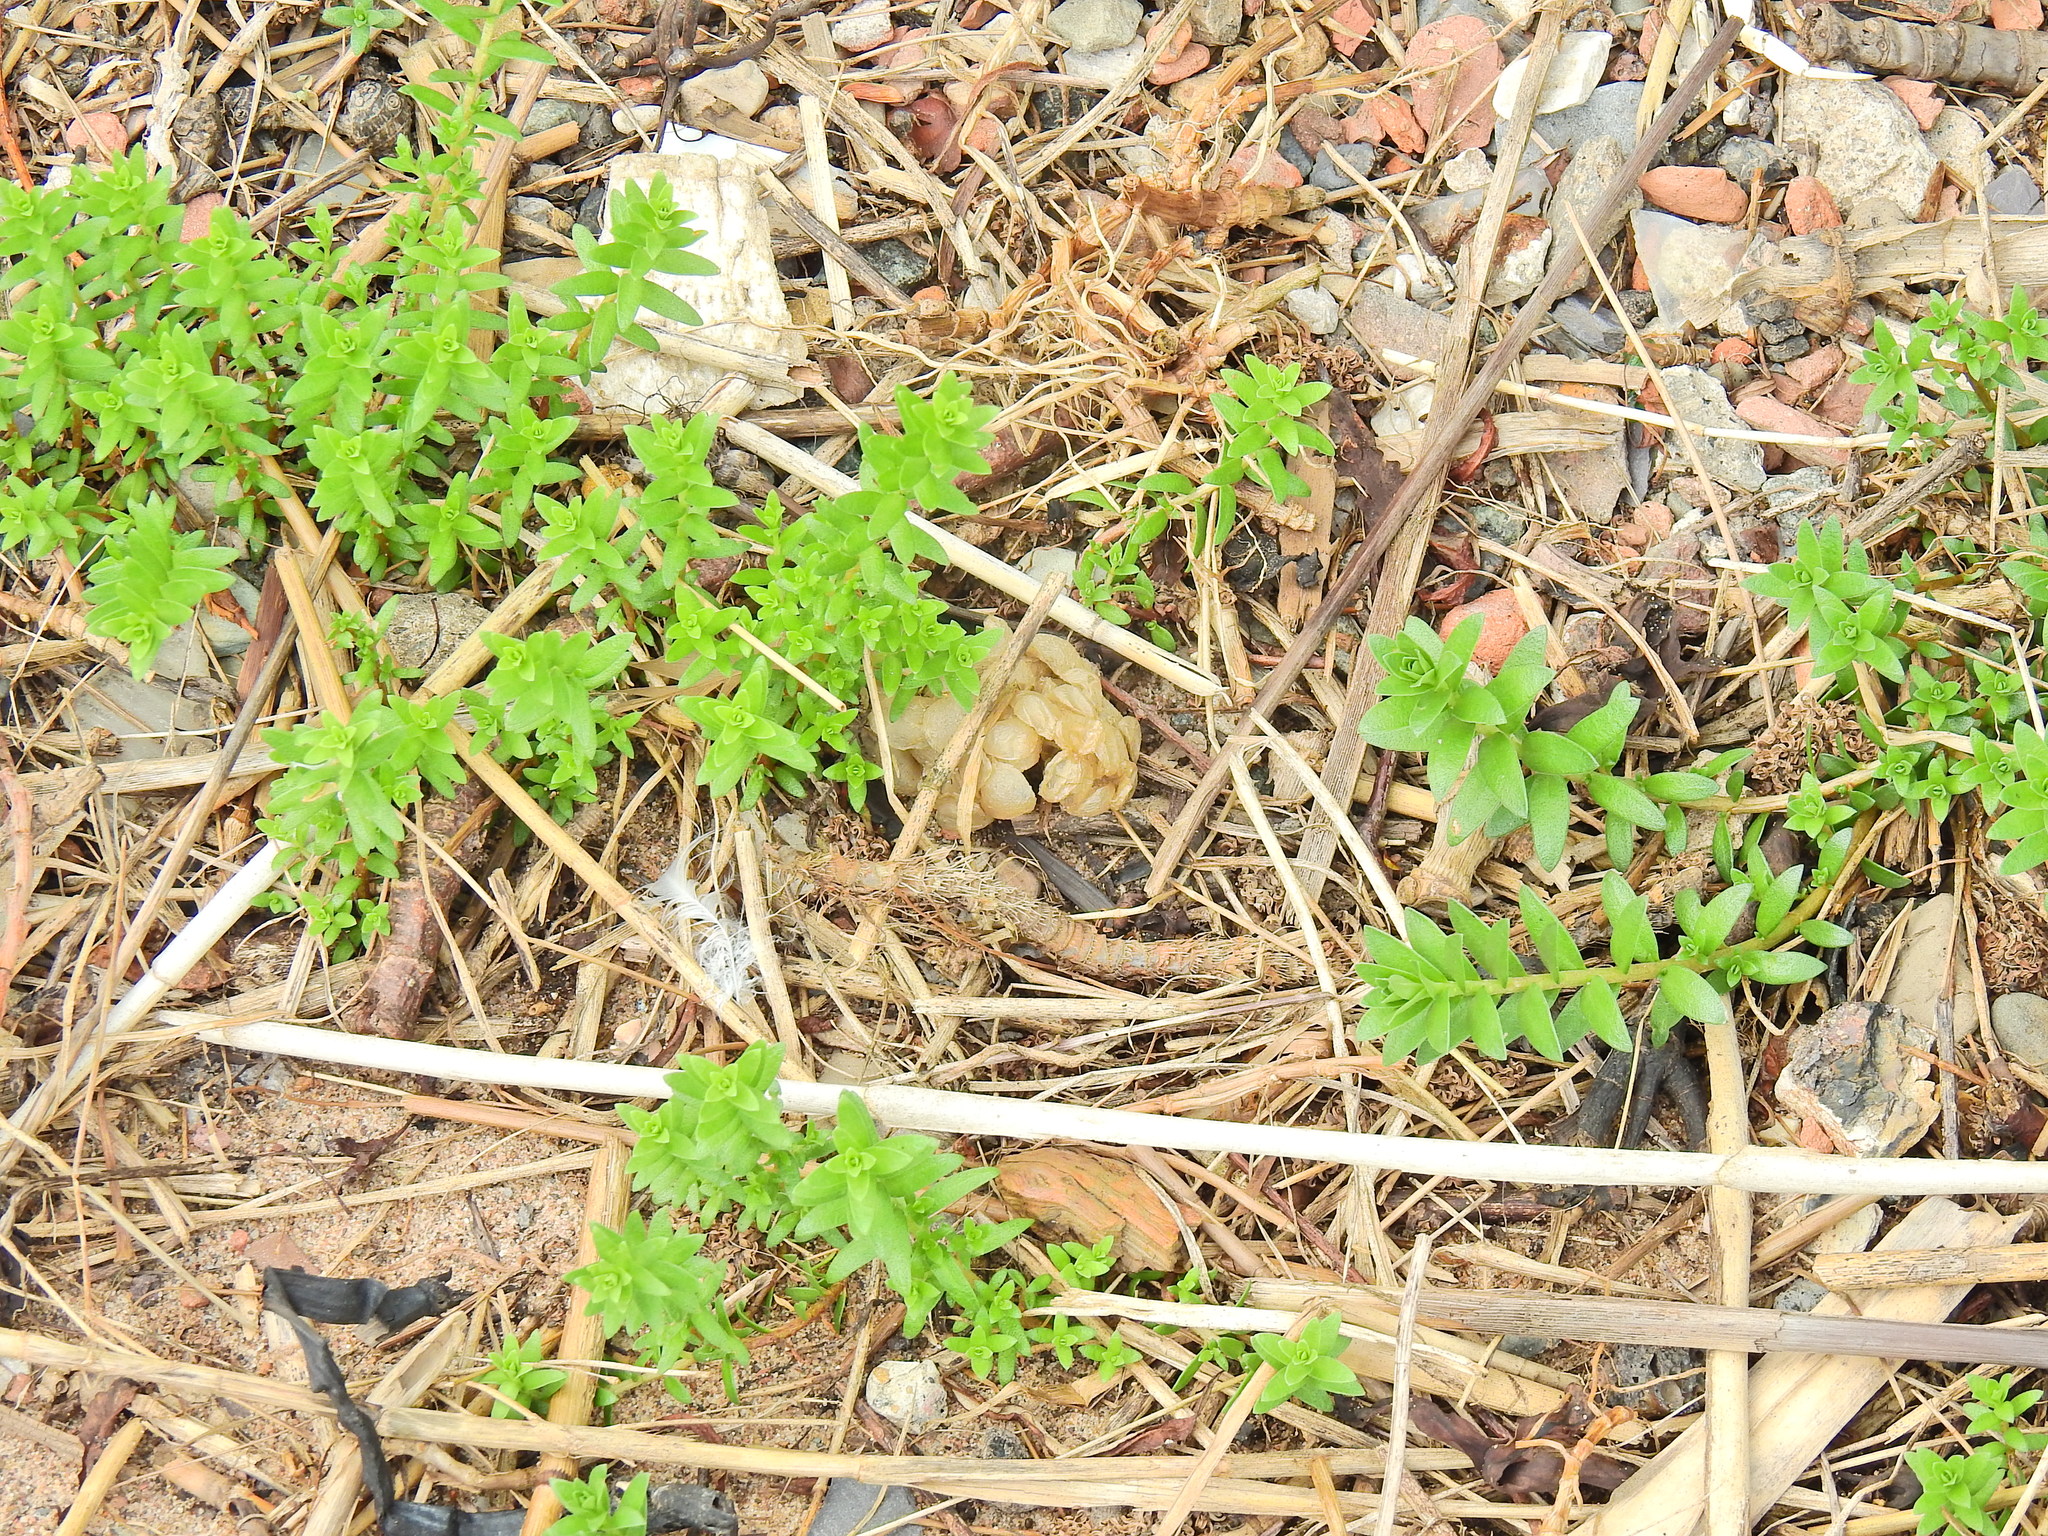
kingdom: Animalia
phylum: Mollusca
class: Gastropoda
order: Neogastropoda
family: Buccinidae
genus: Buccinum
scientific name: Buccinum undatum
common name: Common whelk
